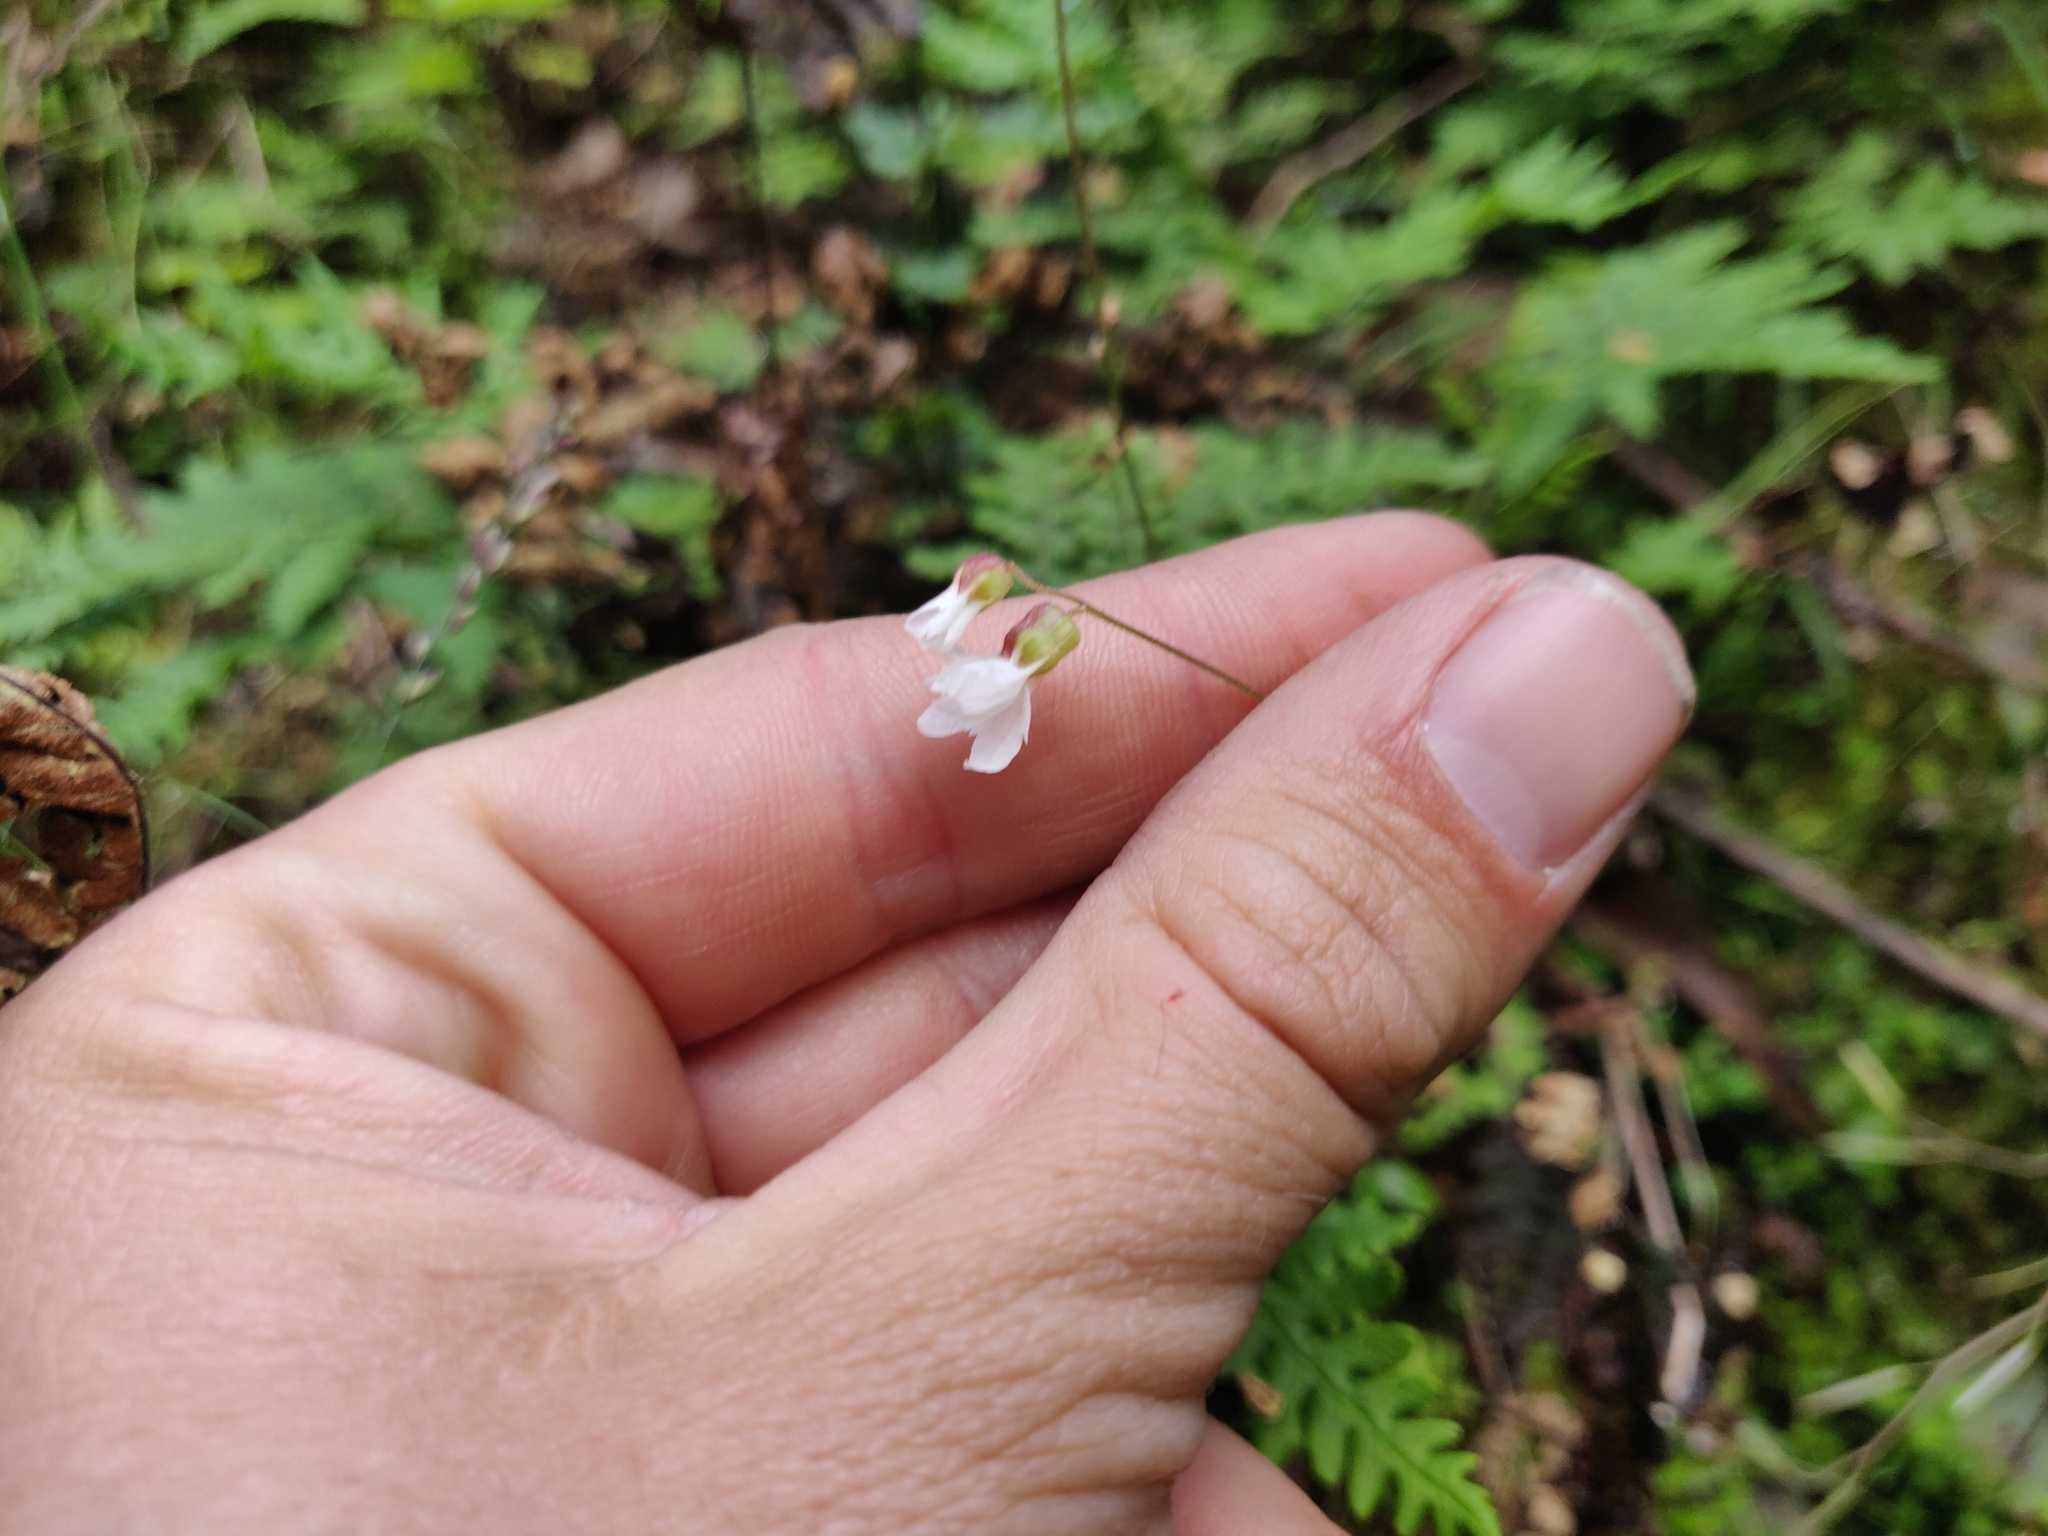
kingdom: Plantae
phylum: Tracheophyta
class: Magnoliopsida
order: Saxifragales
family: Saxifragaceae
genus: Lithophragma
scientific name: Lithophragma heterophyllum
